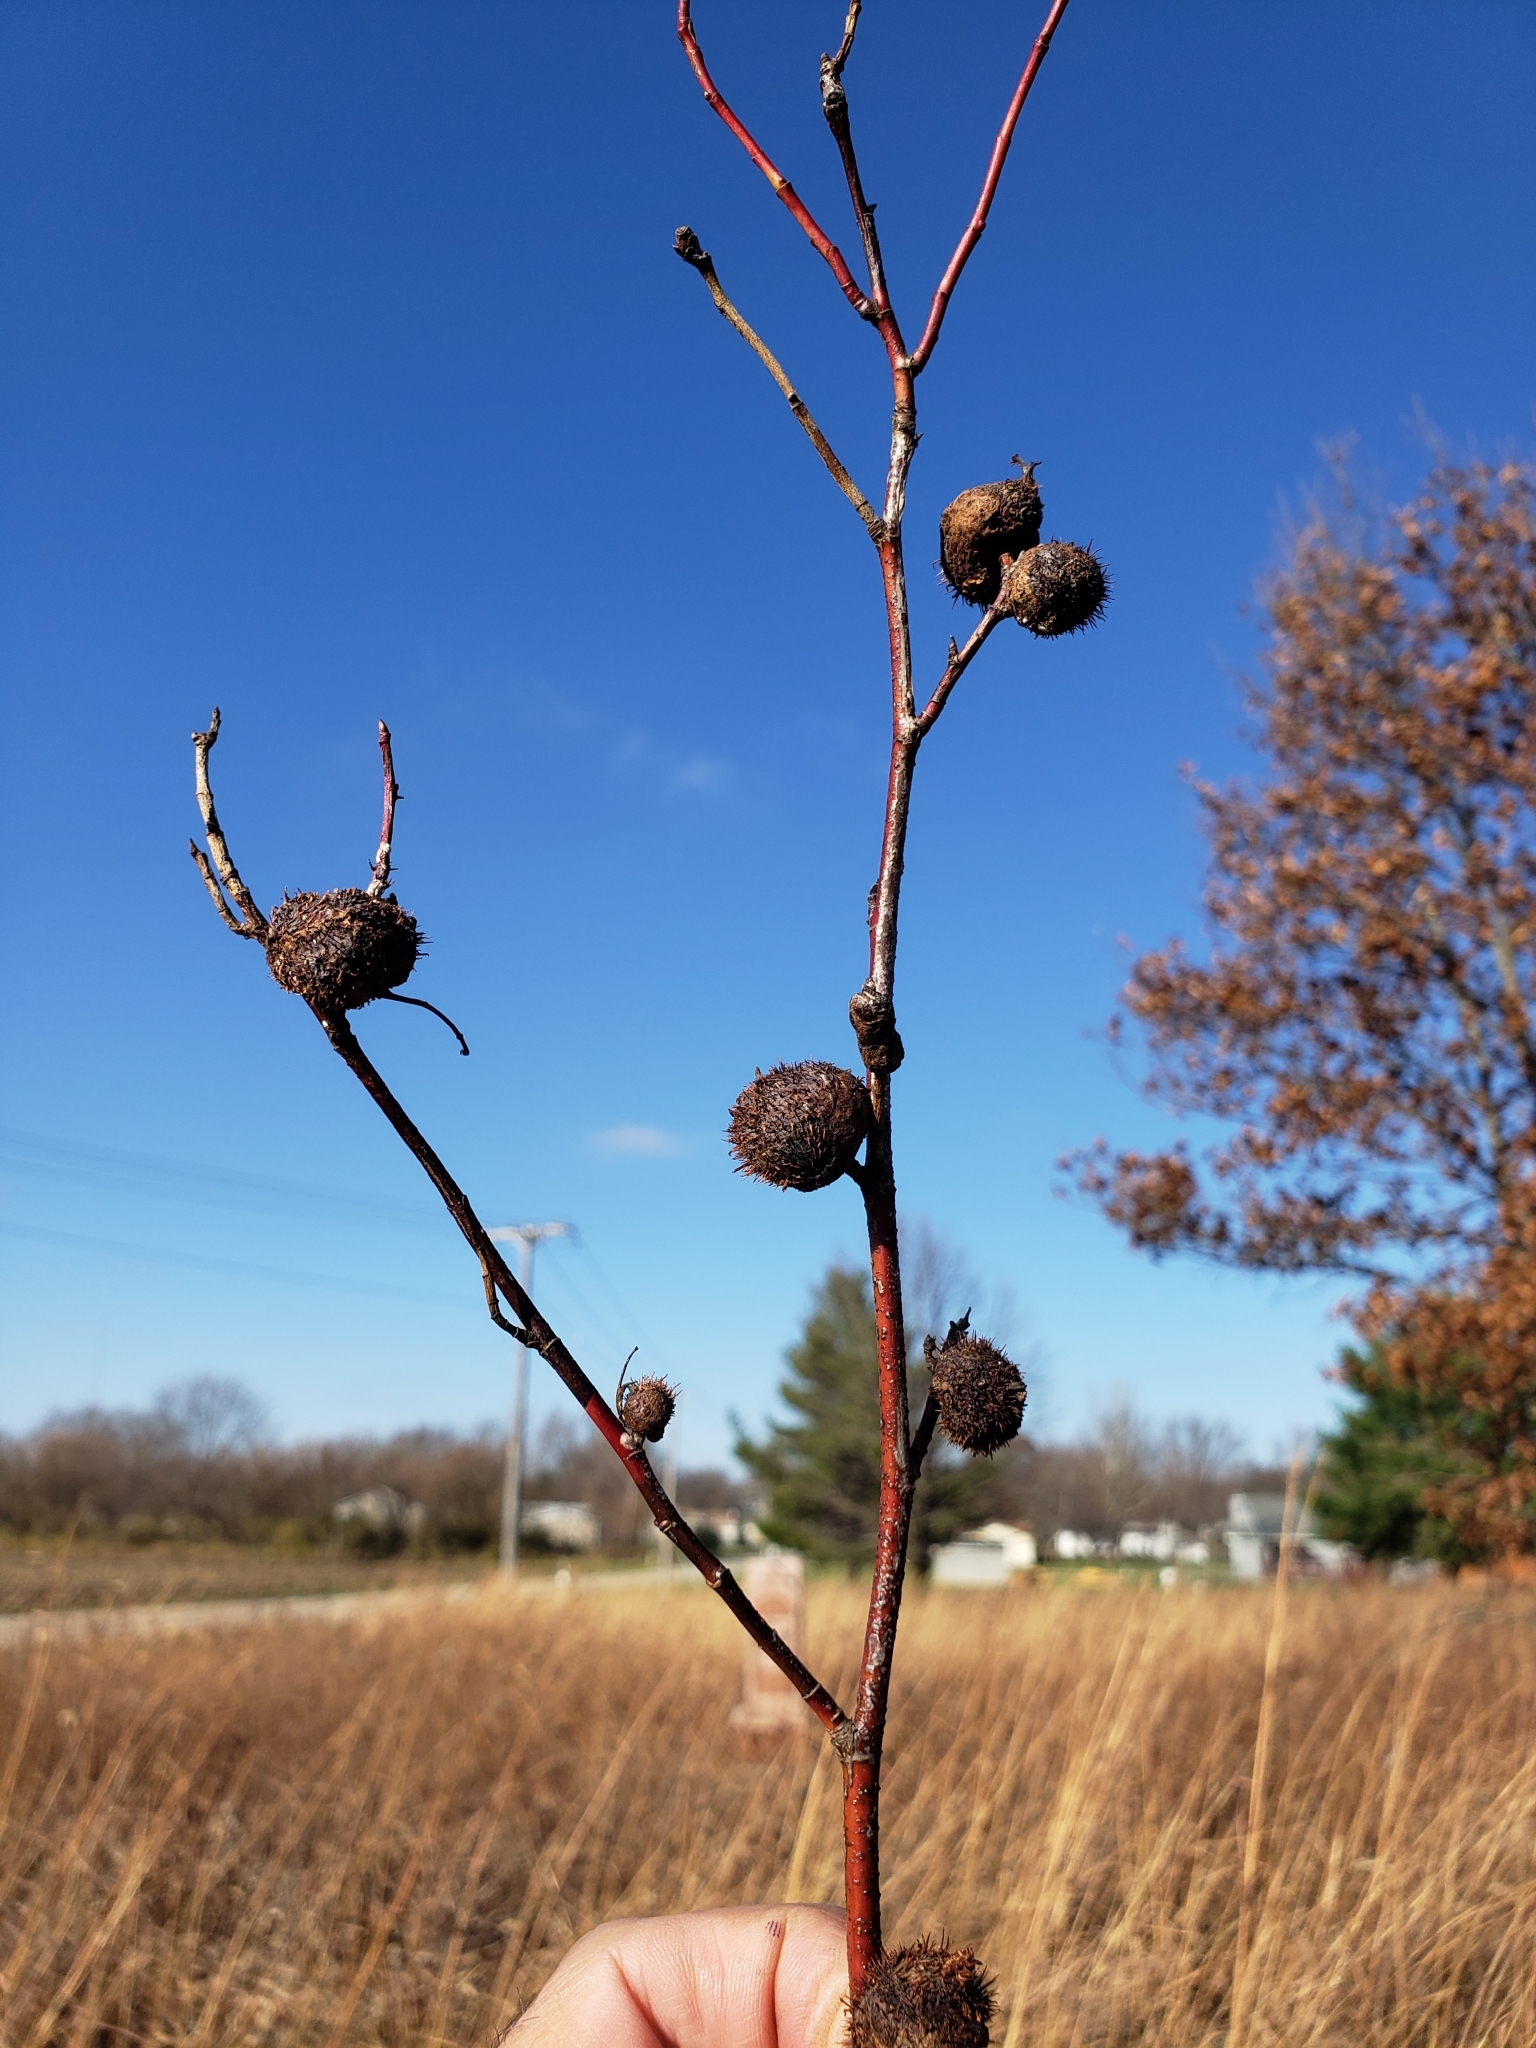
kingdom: Animalia
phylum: Arthropoda
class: Insecta
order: Hymenoptera
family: Cynipidae
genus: Diplolepis
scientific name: Diplolepis spinosa
